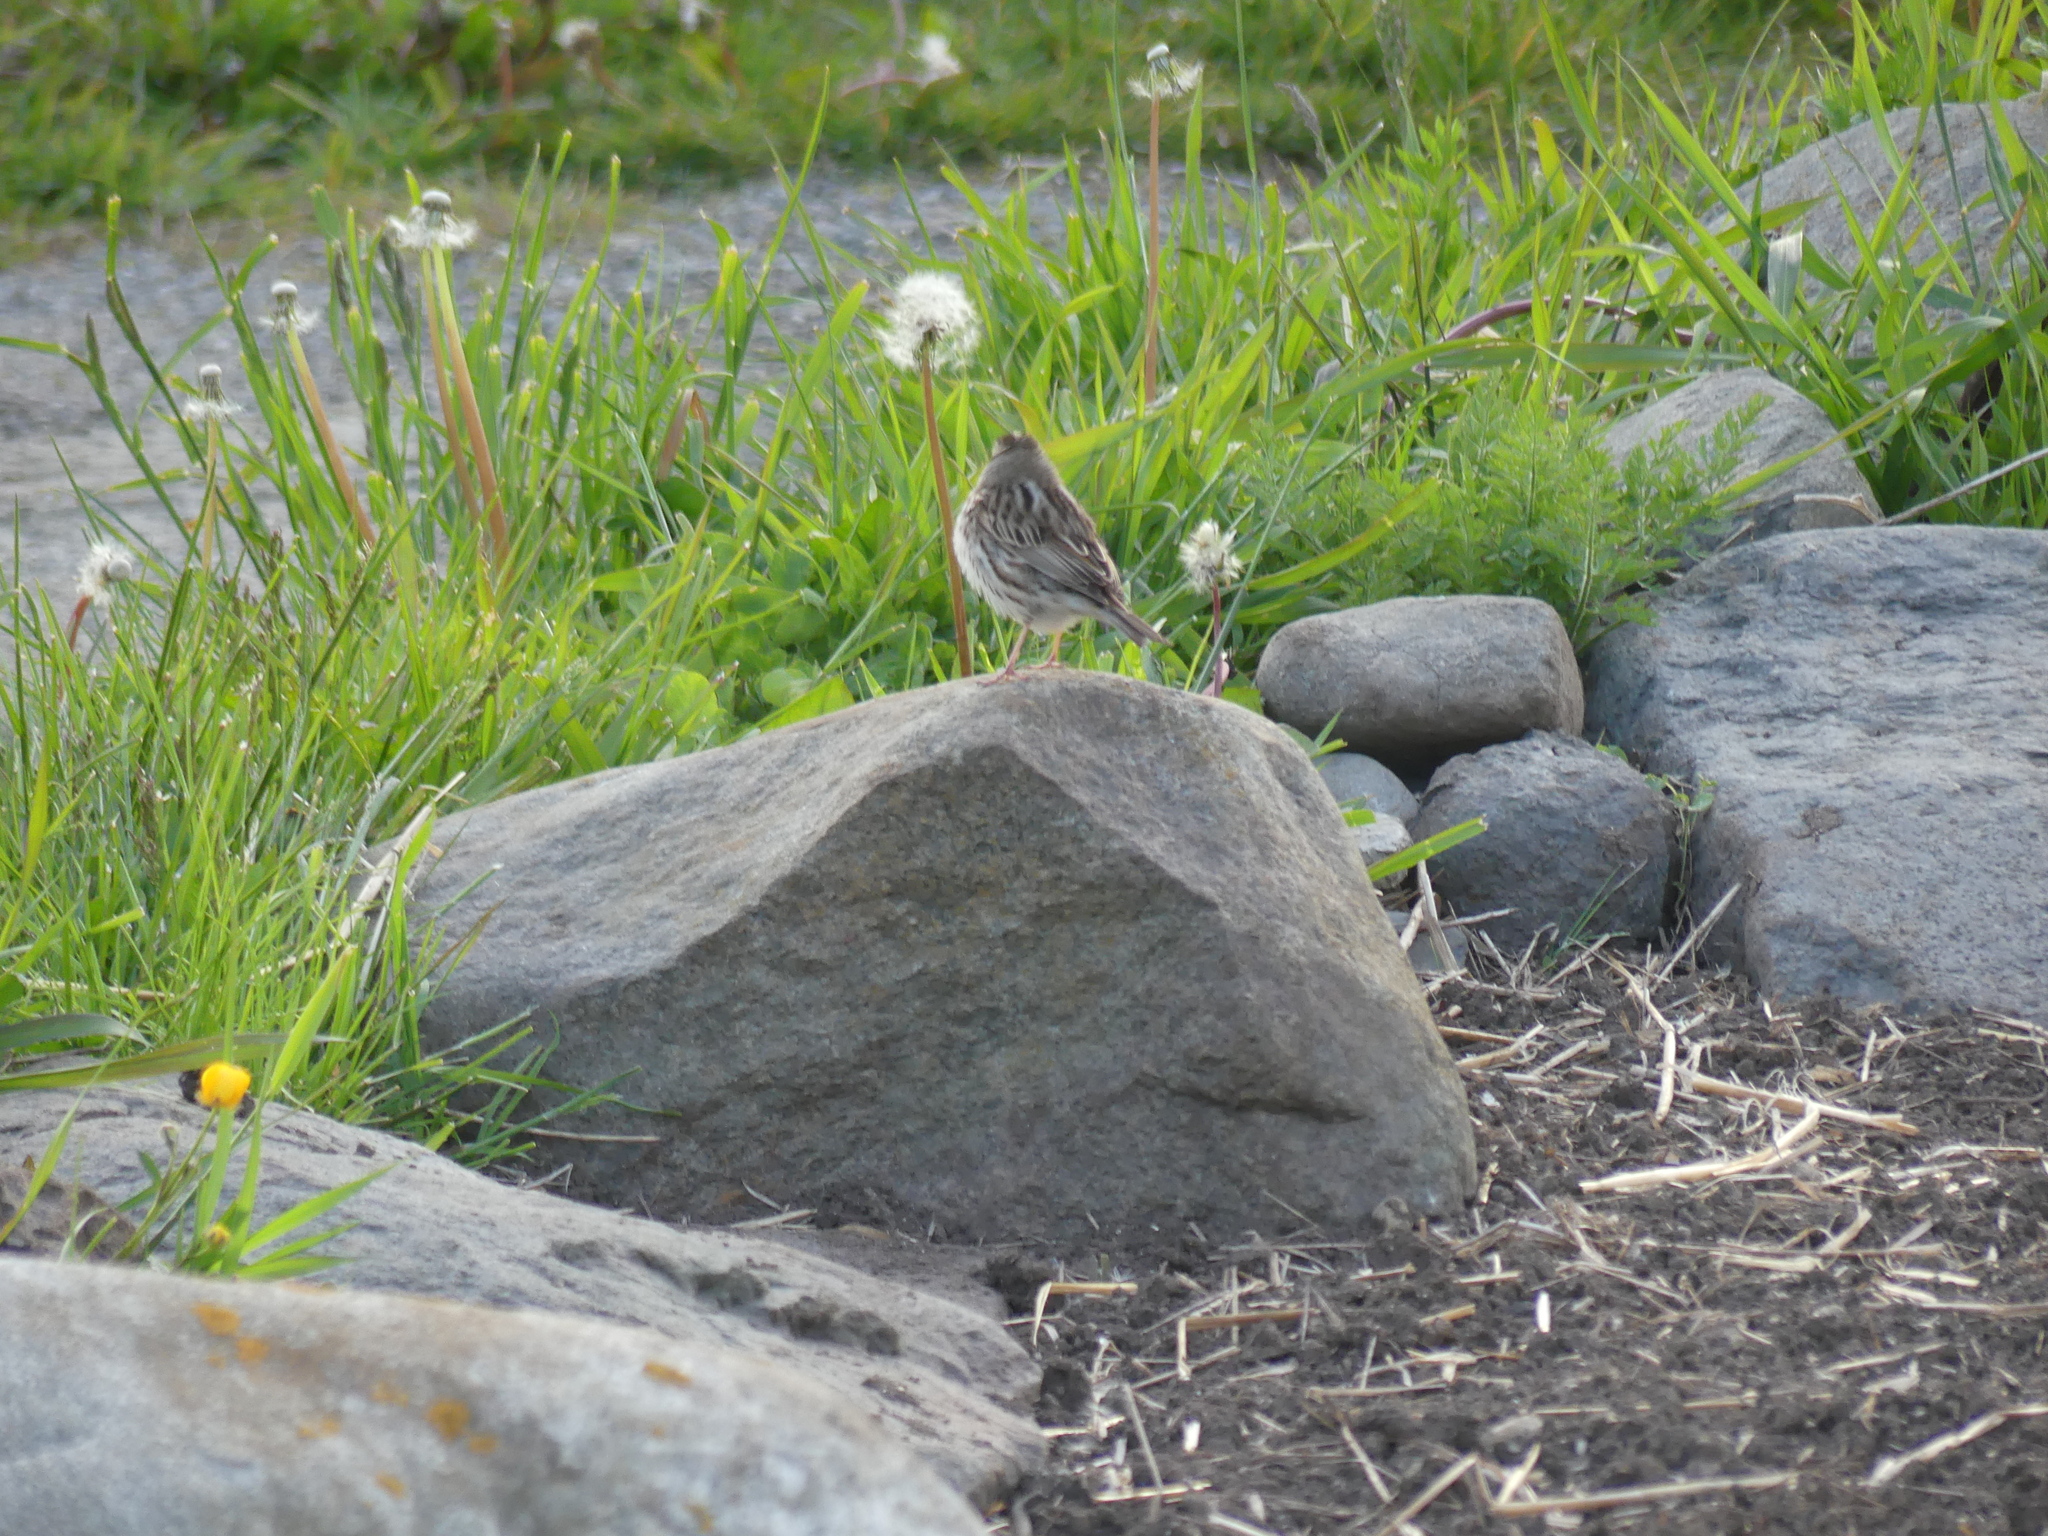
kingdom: Animalia
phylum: Chordata
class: Aves
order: Passeriformes
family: Passerellidae
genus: Melospiza
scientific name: Melospiza melodia
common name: Song sparrow
